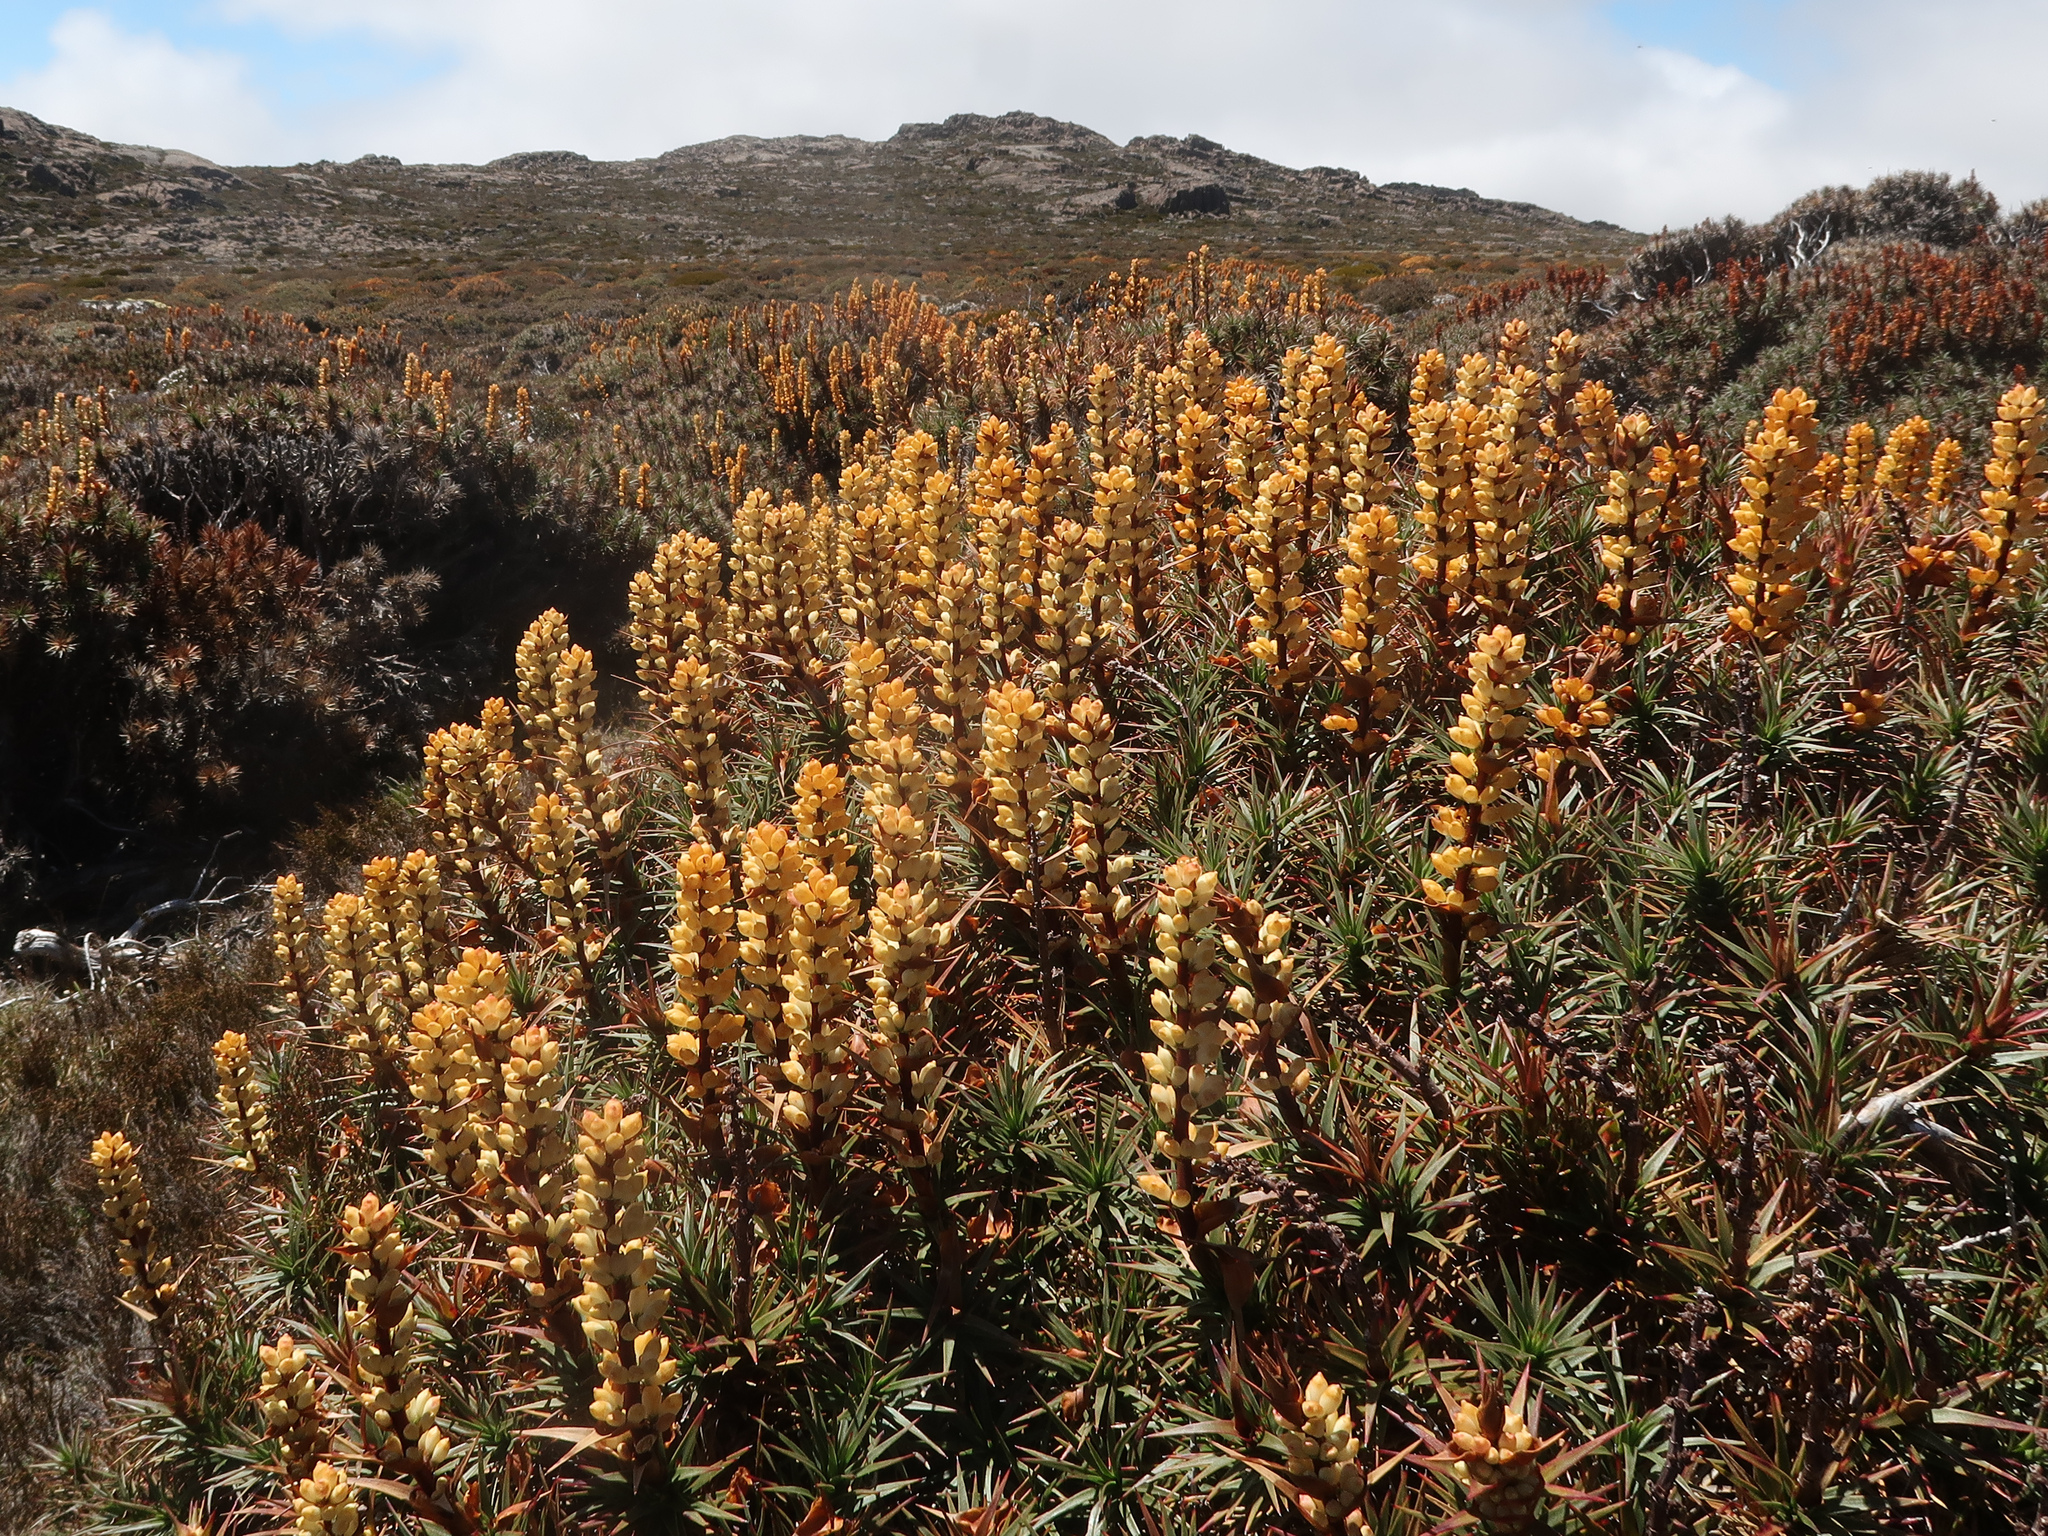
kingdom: Plantae
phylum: Tracheophyta
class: Magnoliopsida
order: Ericales
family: Ericaceae
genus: Dracophyllum
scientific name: Dracophyllum persistentifolium
